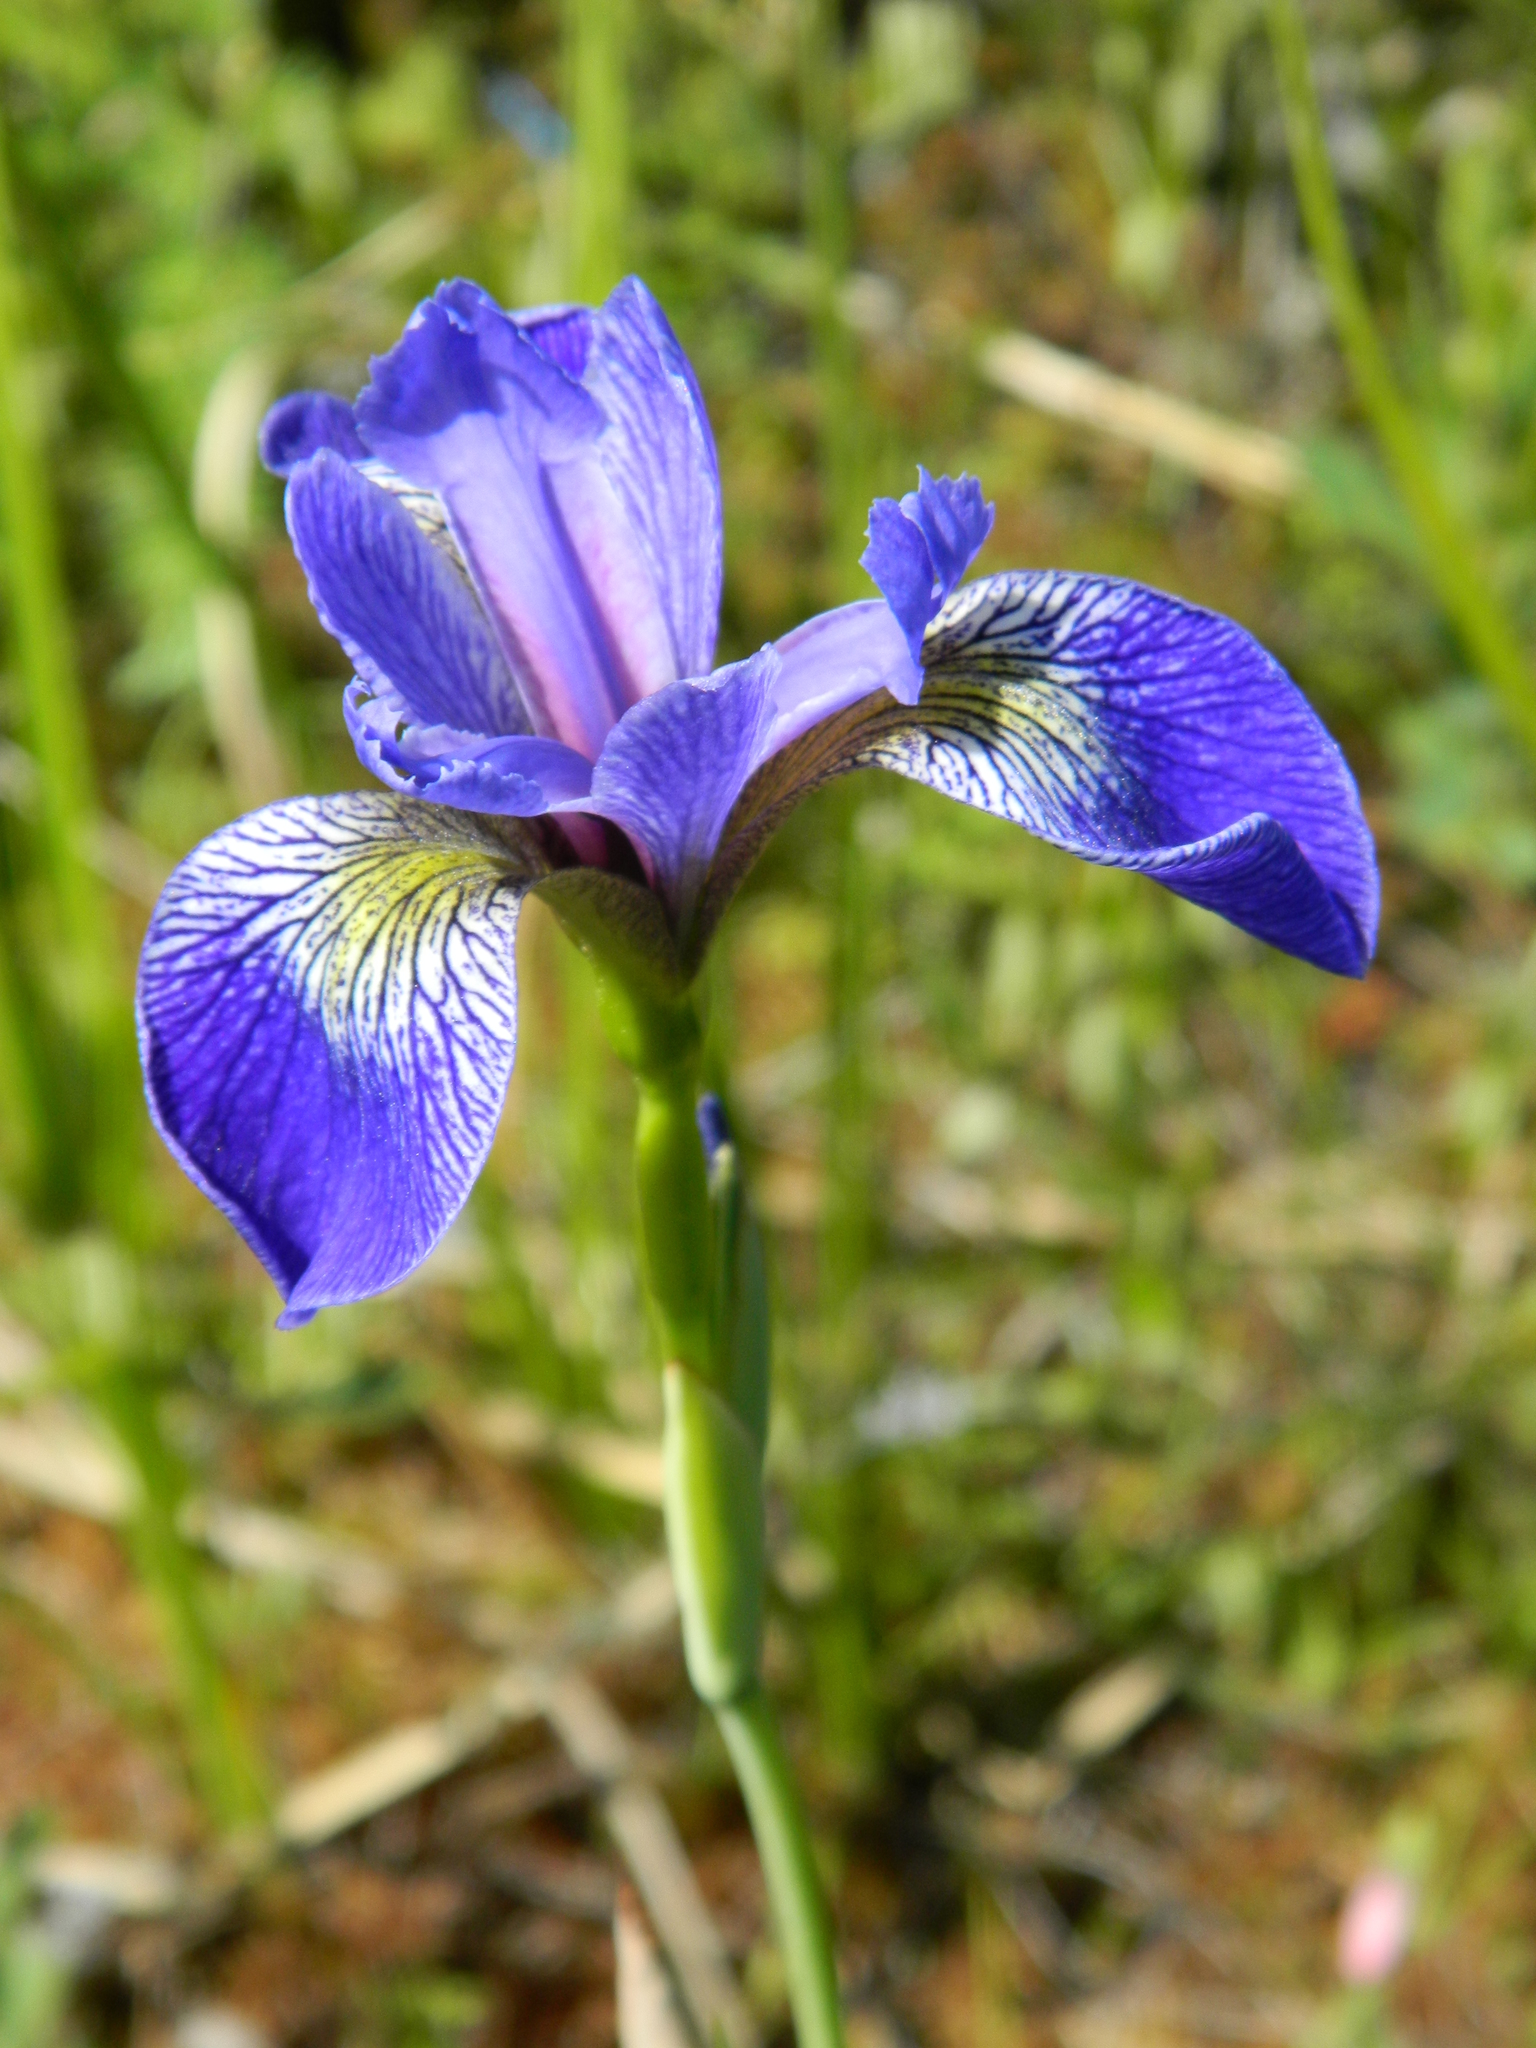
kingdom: Plantae
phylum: Tracheophyta
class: Liliopsida
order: Asparagales
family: Iridaceae
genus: Iris
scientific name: Iris versicolor
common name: Purple iris
